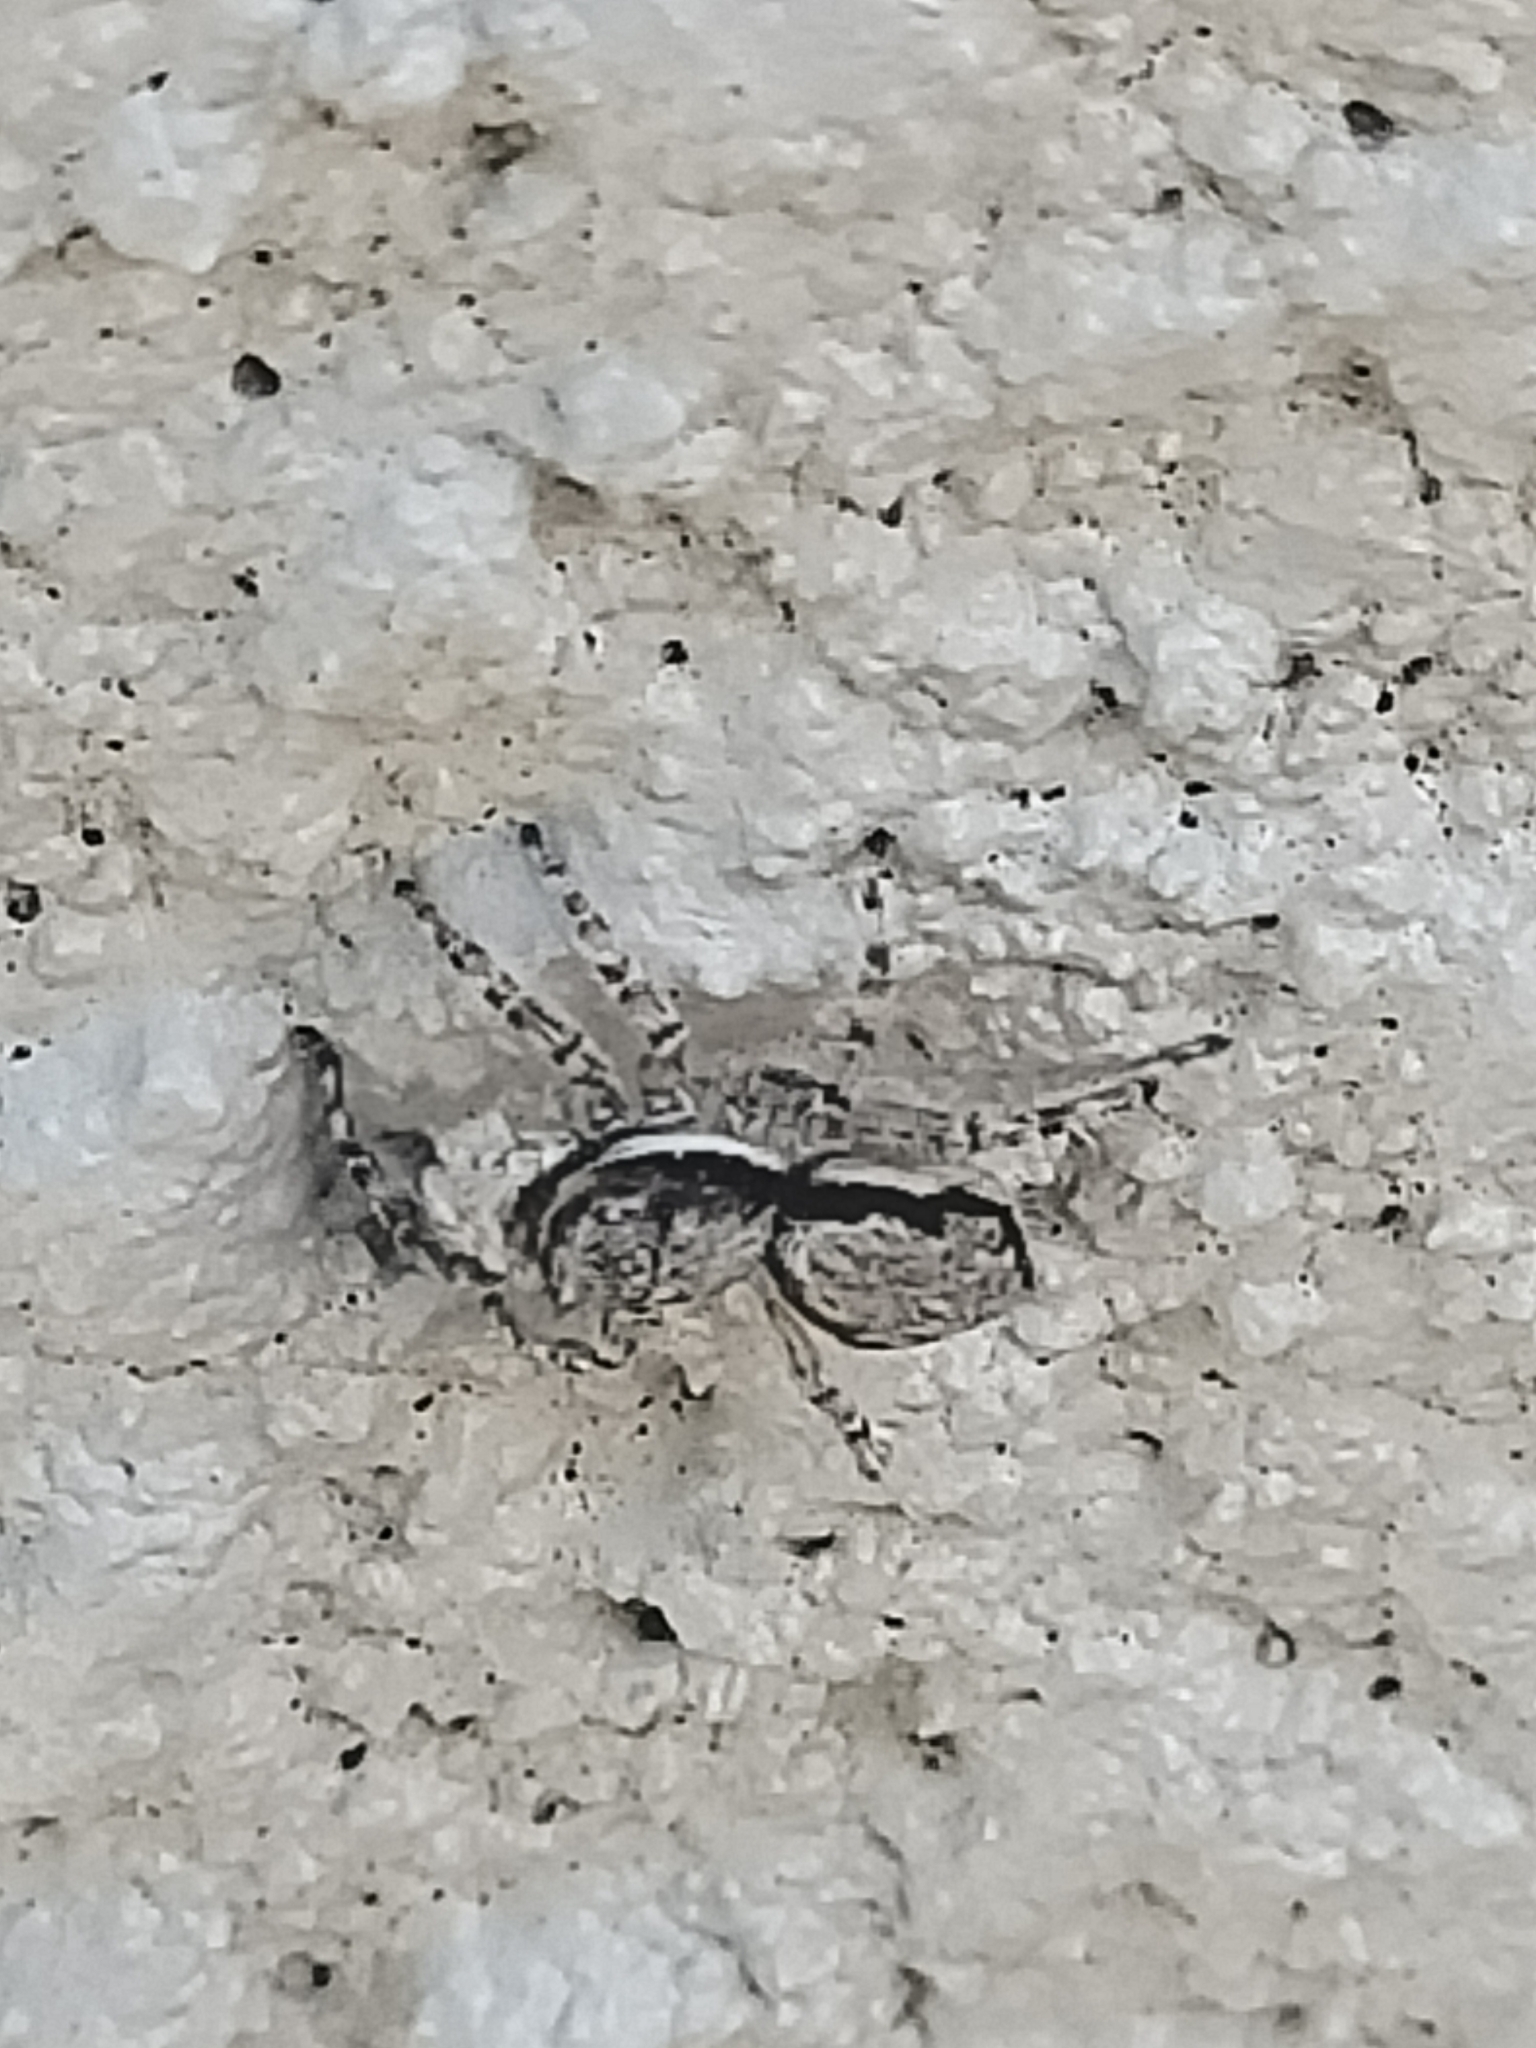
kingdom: Animalia
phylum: Arthropoda
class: Arachnida
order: Araneae
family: Salticidae
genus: Menemerus
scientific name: Menemerus bivittatus
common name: Gray wall jumper
